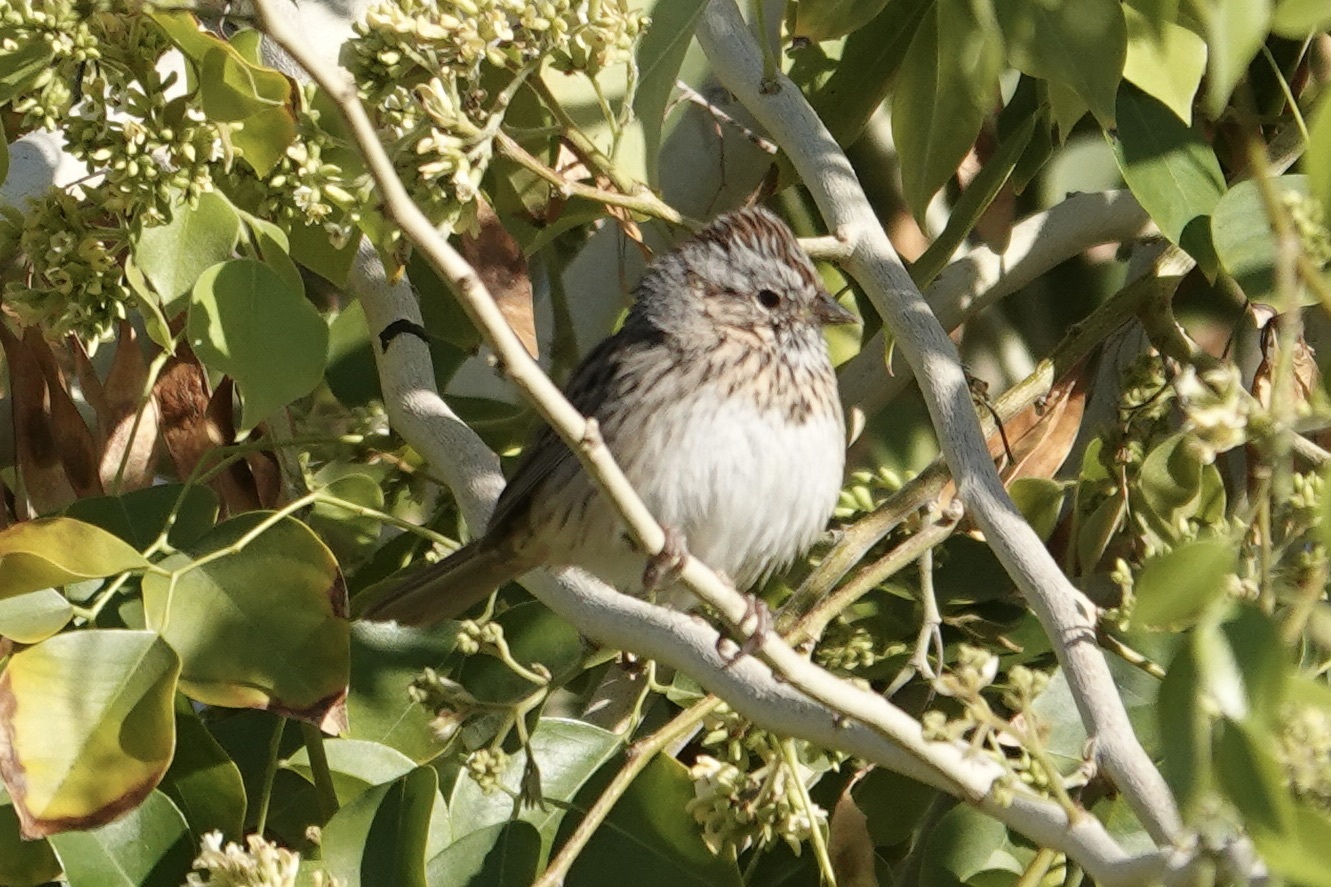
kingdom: Animalia
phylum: Chordata
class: Aves
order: Passeriformes
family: Passerellidae
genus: Melospiza
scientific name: Melospiza lincolnii
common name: Lincoln's sparrow
